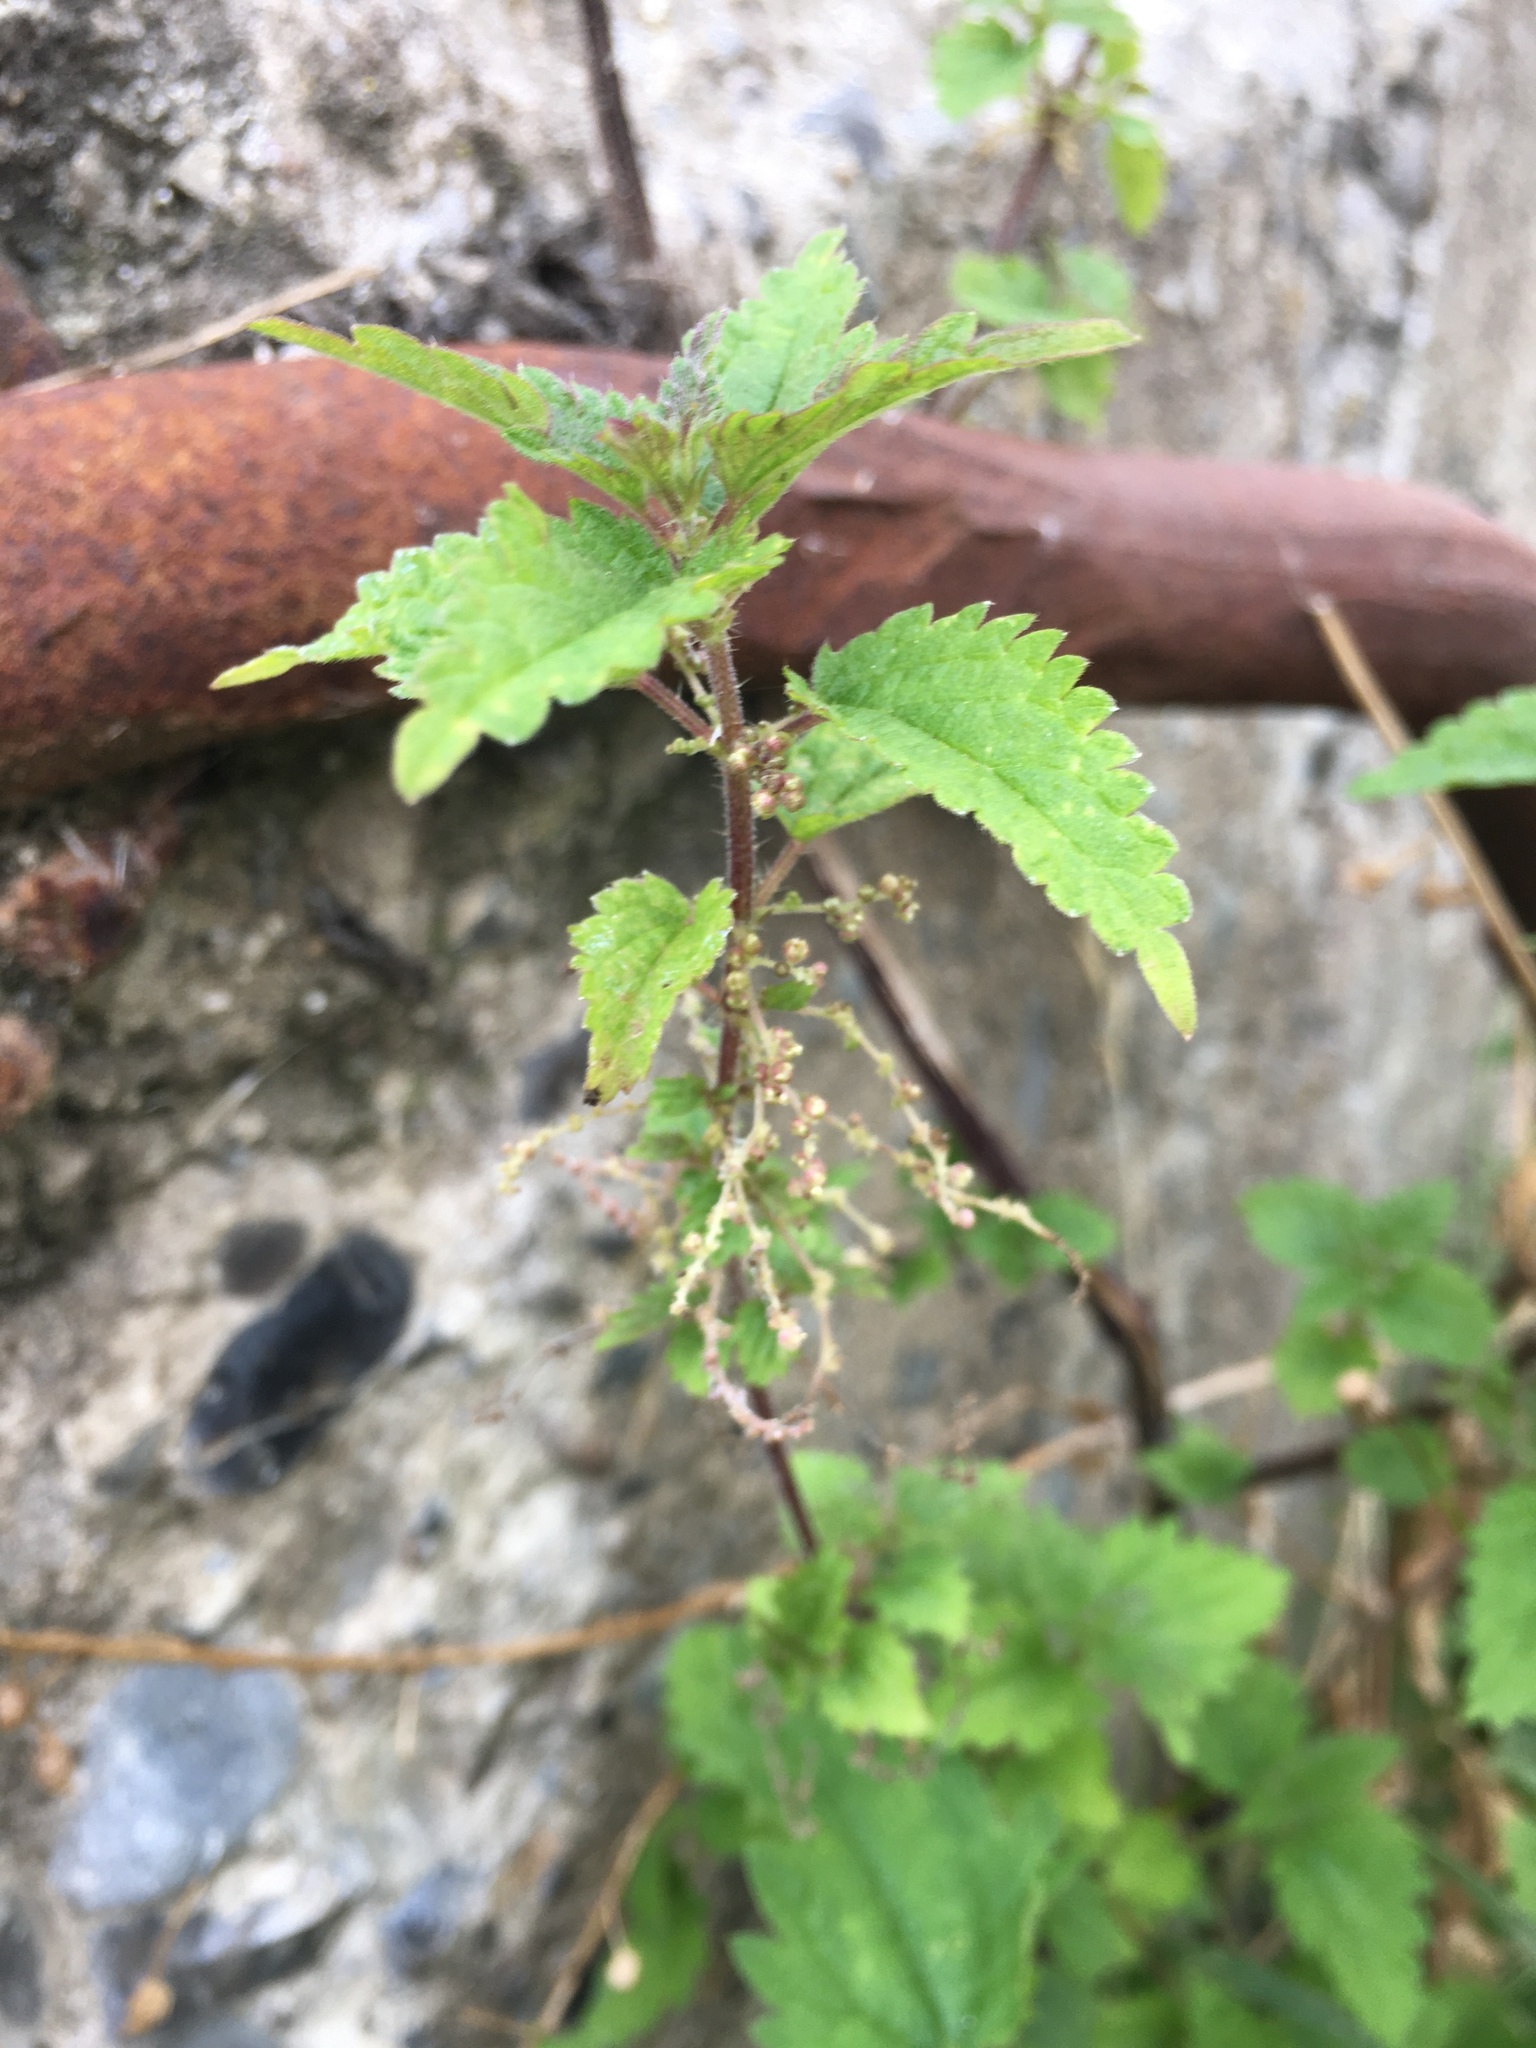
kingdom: Plantae
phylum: Tracheophyta
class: Magnoliopsida
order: Rosales
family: Urticaceae
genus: Urtica
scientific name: Urtica dioica
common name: Common nettle
